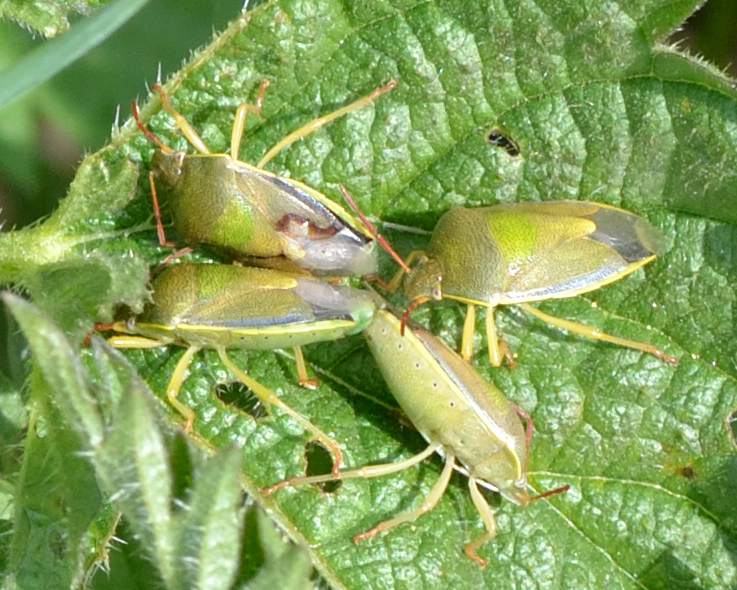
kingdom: Animalia
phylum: Arthropoda
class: Insecta
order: Hemiptera
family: Pentatomidae
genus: Piezodorus
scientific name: Piezodorus lituratus
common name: Stink bug
